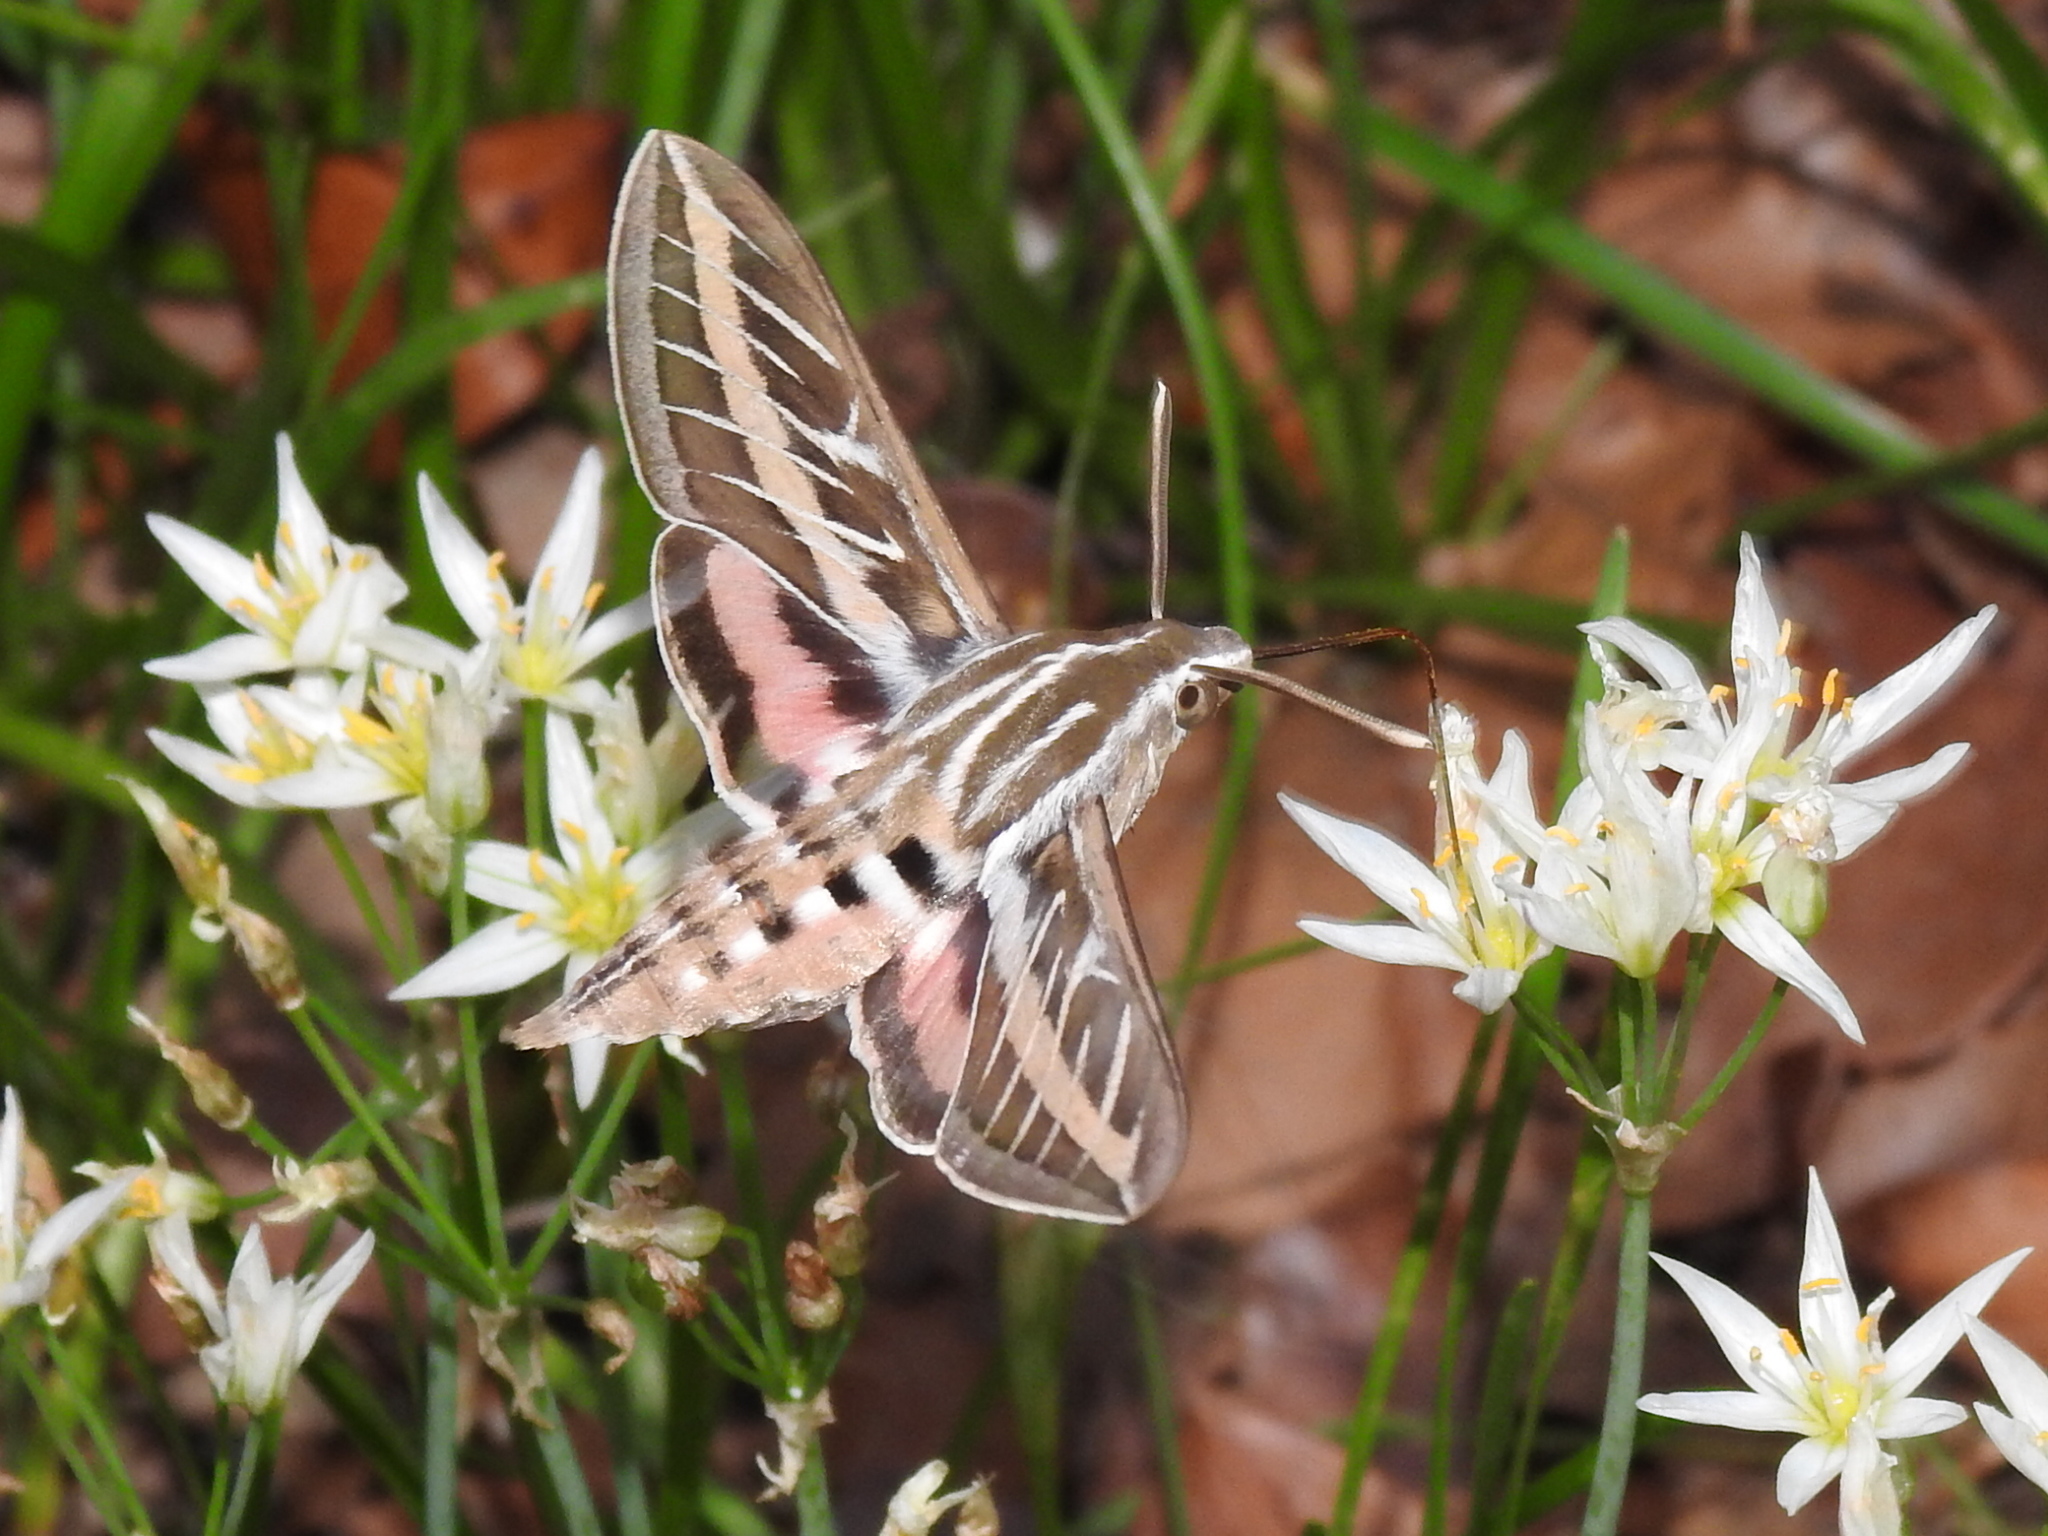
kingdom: Animalia
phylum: Arthropoda
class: Insecta
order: Lepidoptera
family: Sphingidae
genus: Hyles
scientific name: Hyles lineata
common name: White-lined sphinx
